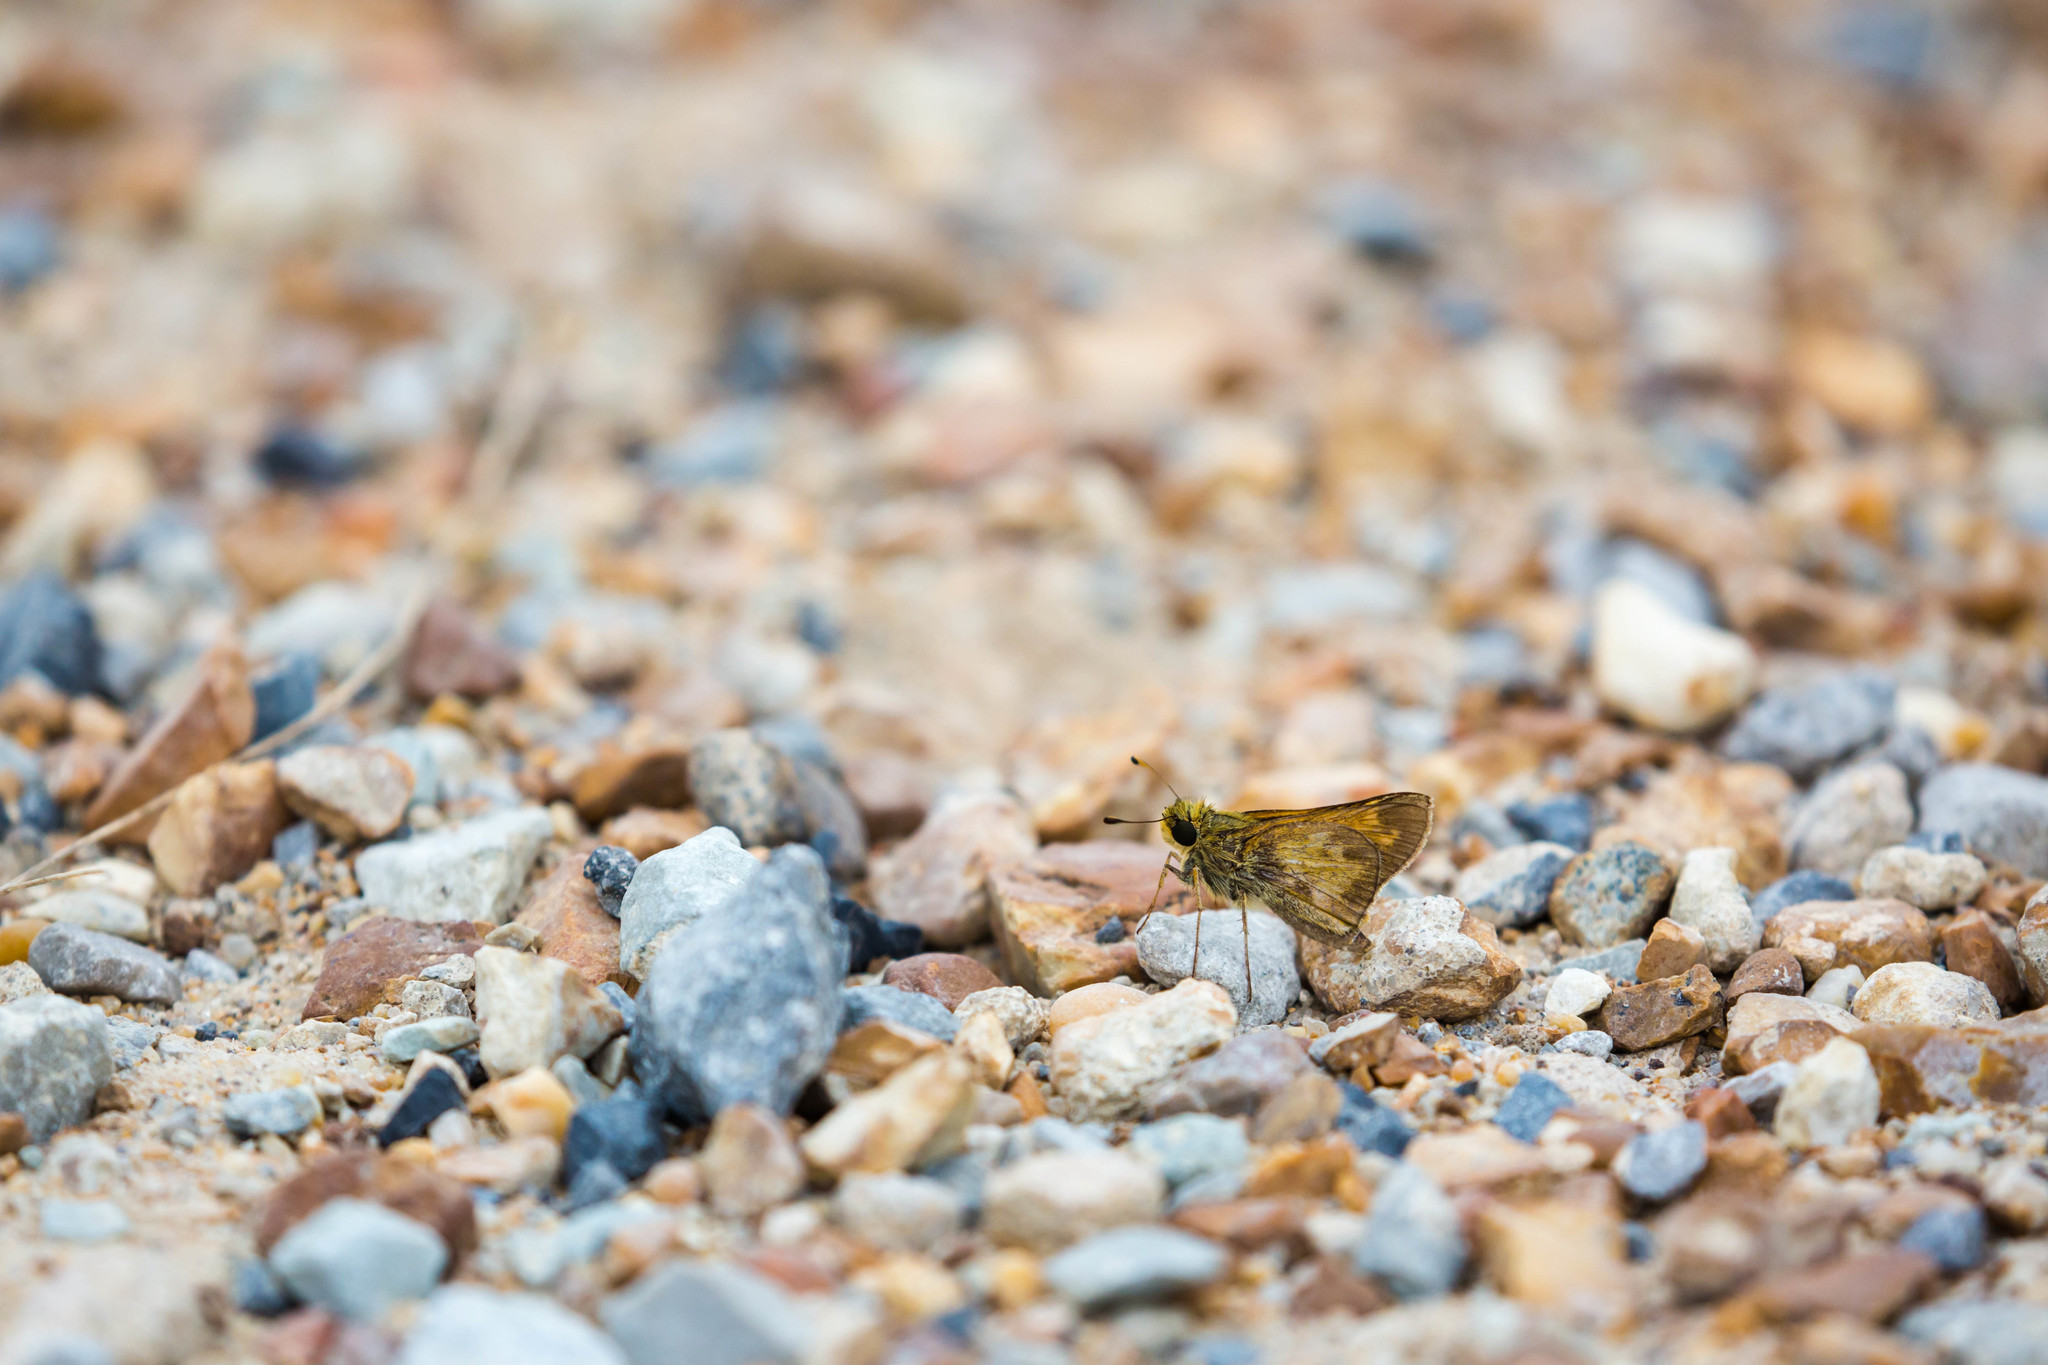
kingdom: Animalia
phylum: Arthropoda
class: Insecta
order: Lepidoptera
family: Hesperiidae
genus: Atalopedes
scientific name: Atalopedes
